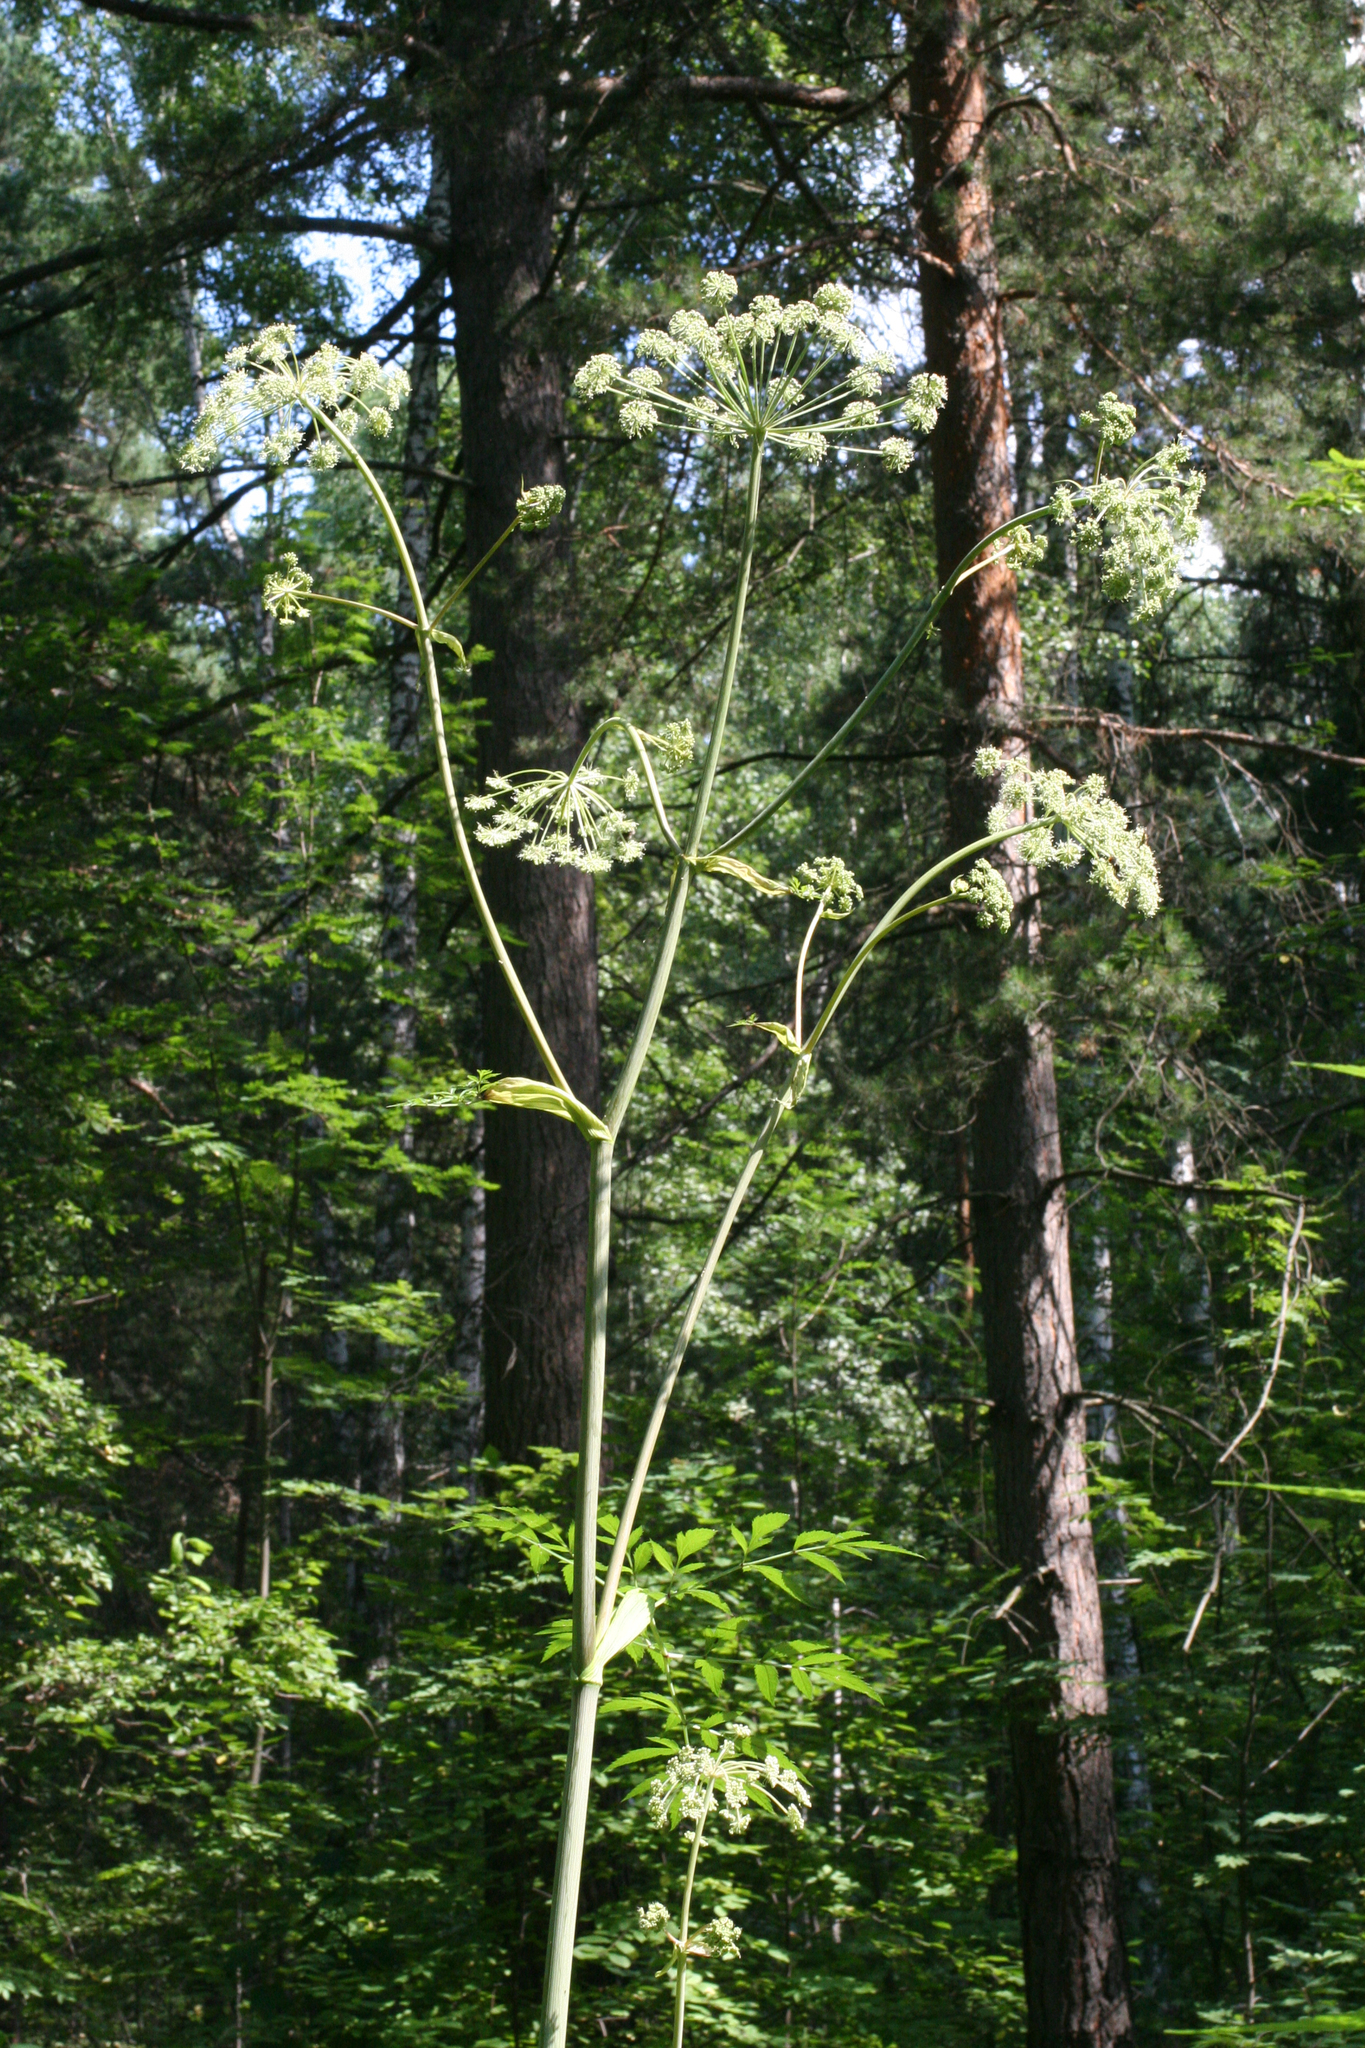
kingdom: Plantae
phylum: Tracheophyta
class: Magnoliopsida
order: Apiales
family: Apiaceae
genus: Angelica
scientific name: Angelica sylvestris
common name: Wild angelica
